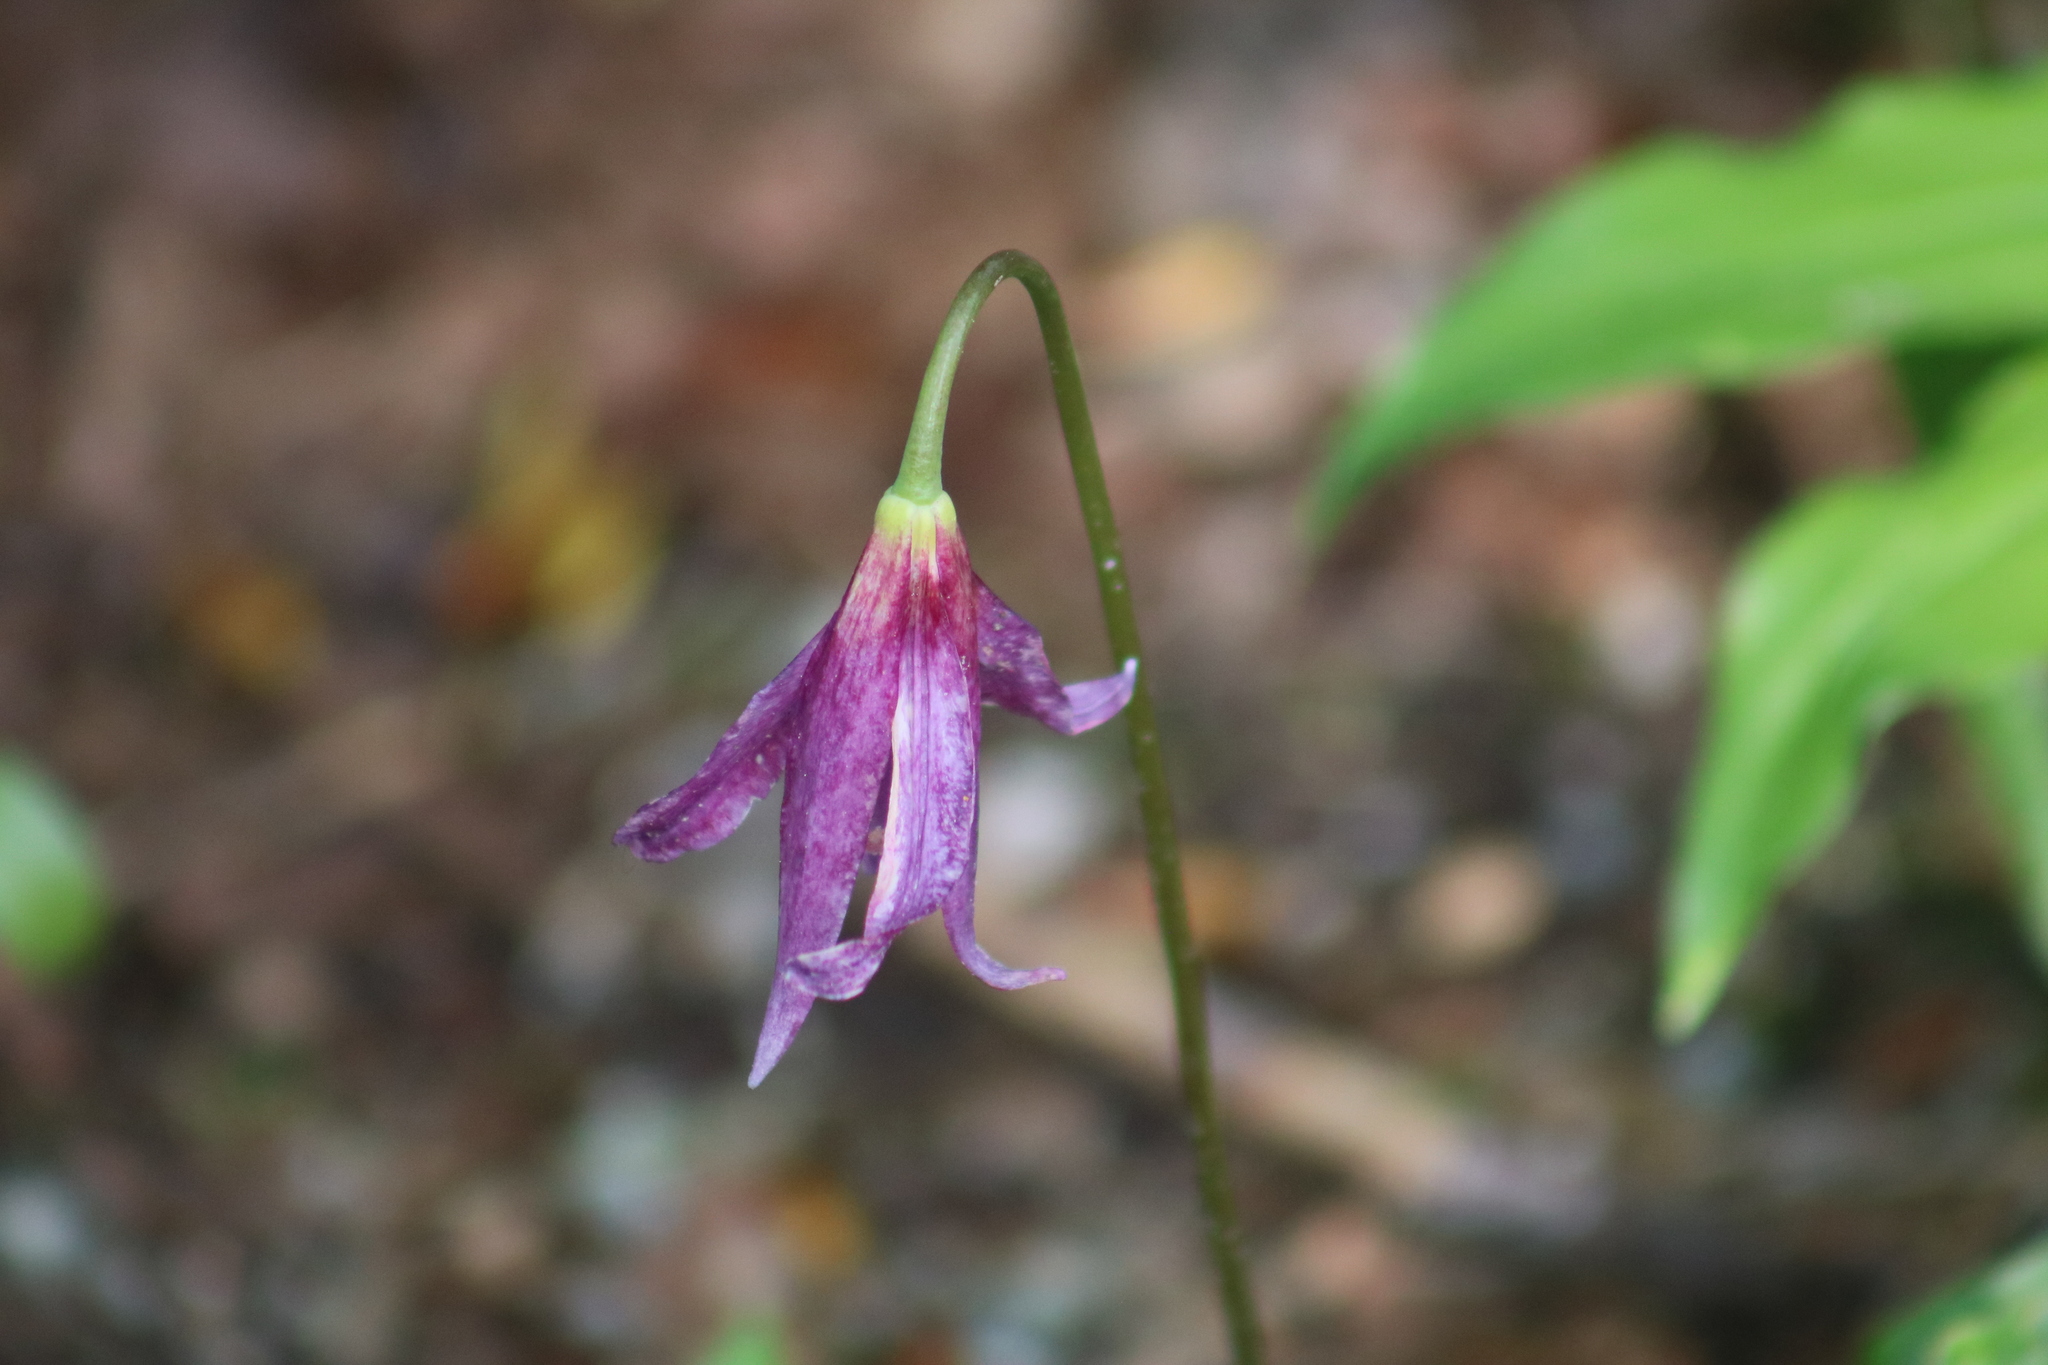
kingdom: Plantae
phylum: Tracheophyta
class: Liliopsida
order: Liliales
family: Liliaceae
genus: Erythronium
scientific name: Erythronium revolutum
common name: Pink fawn-lily
